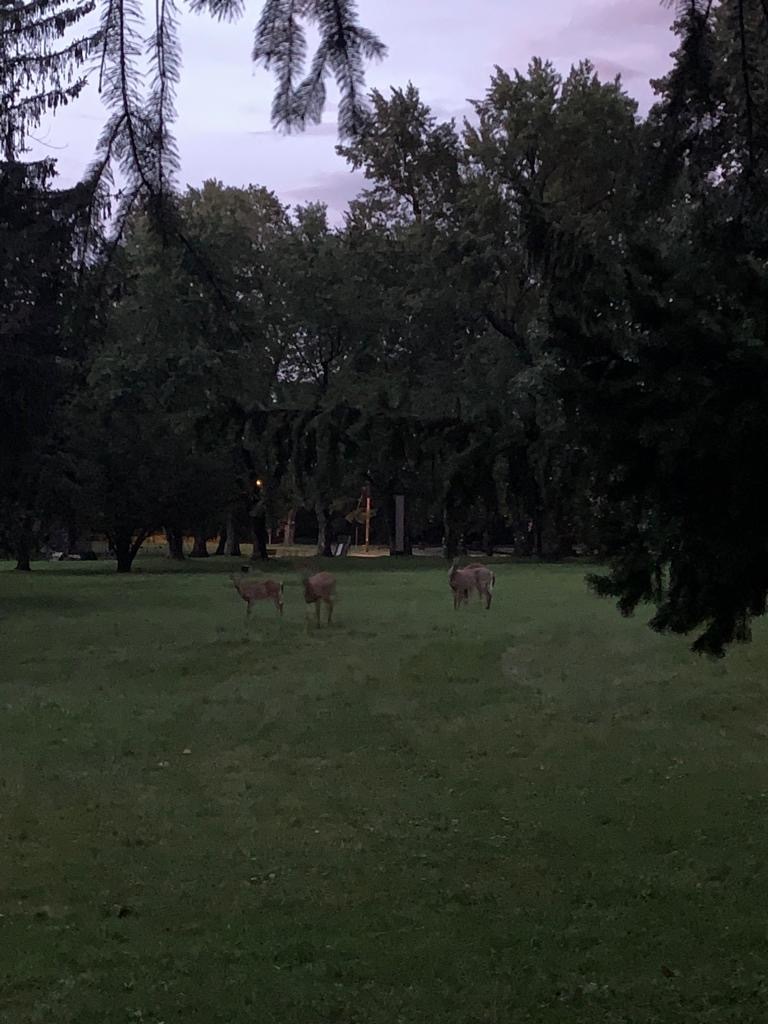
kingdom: Animalia
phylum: Chordata
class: Mammalia
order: Artiodactyla
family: Cervidae
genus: Odocoileus
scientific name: Odocoileus virginianus
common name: White-tailed deer
